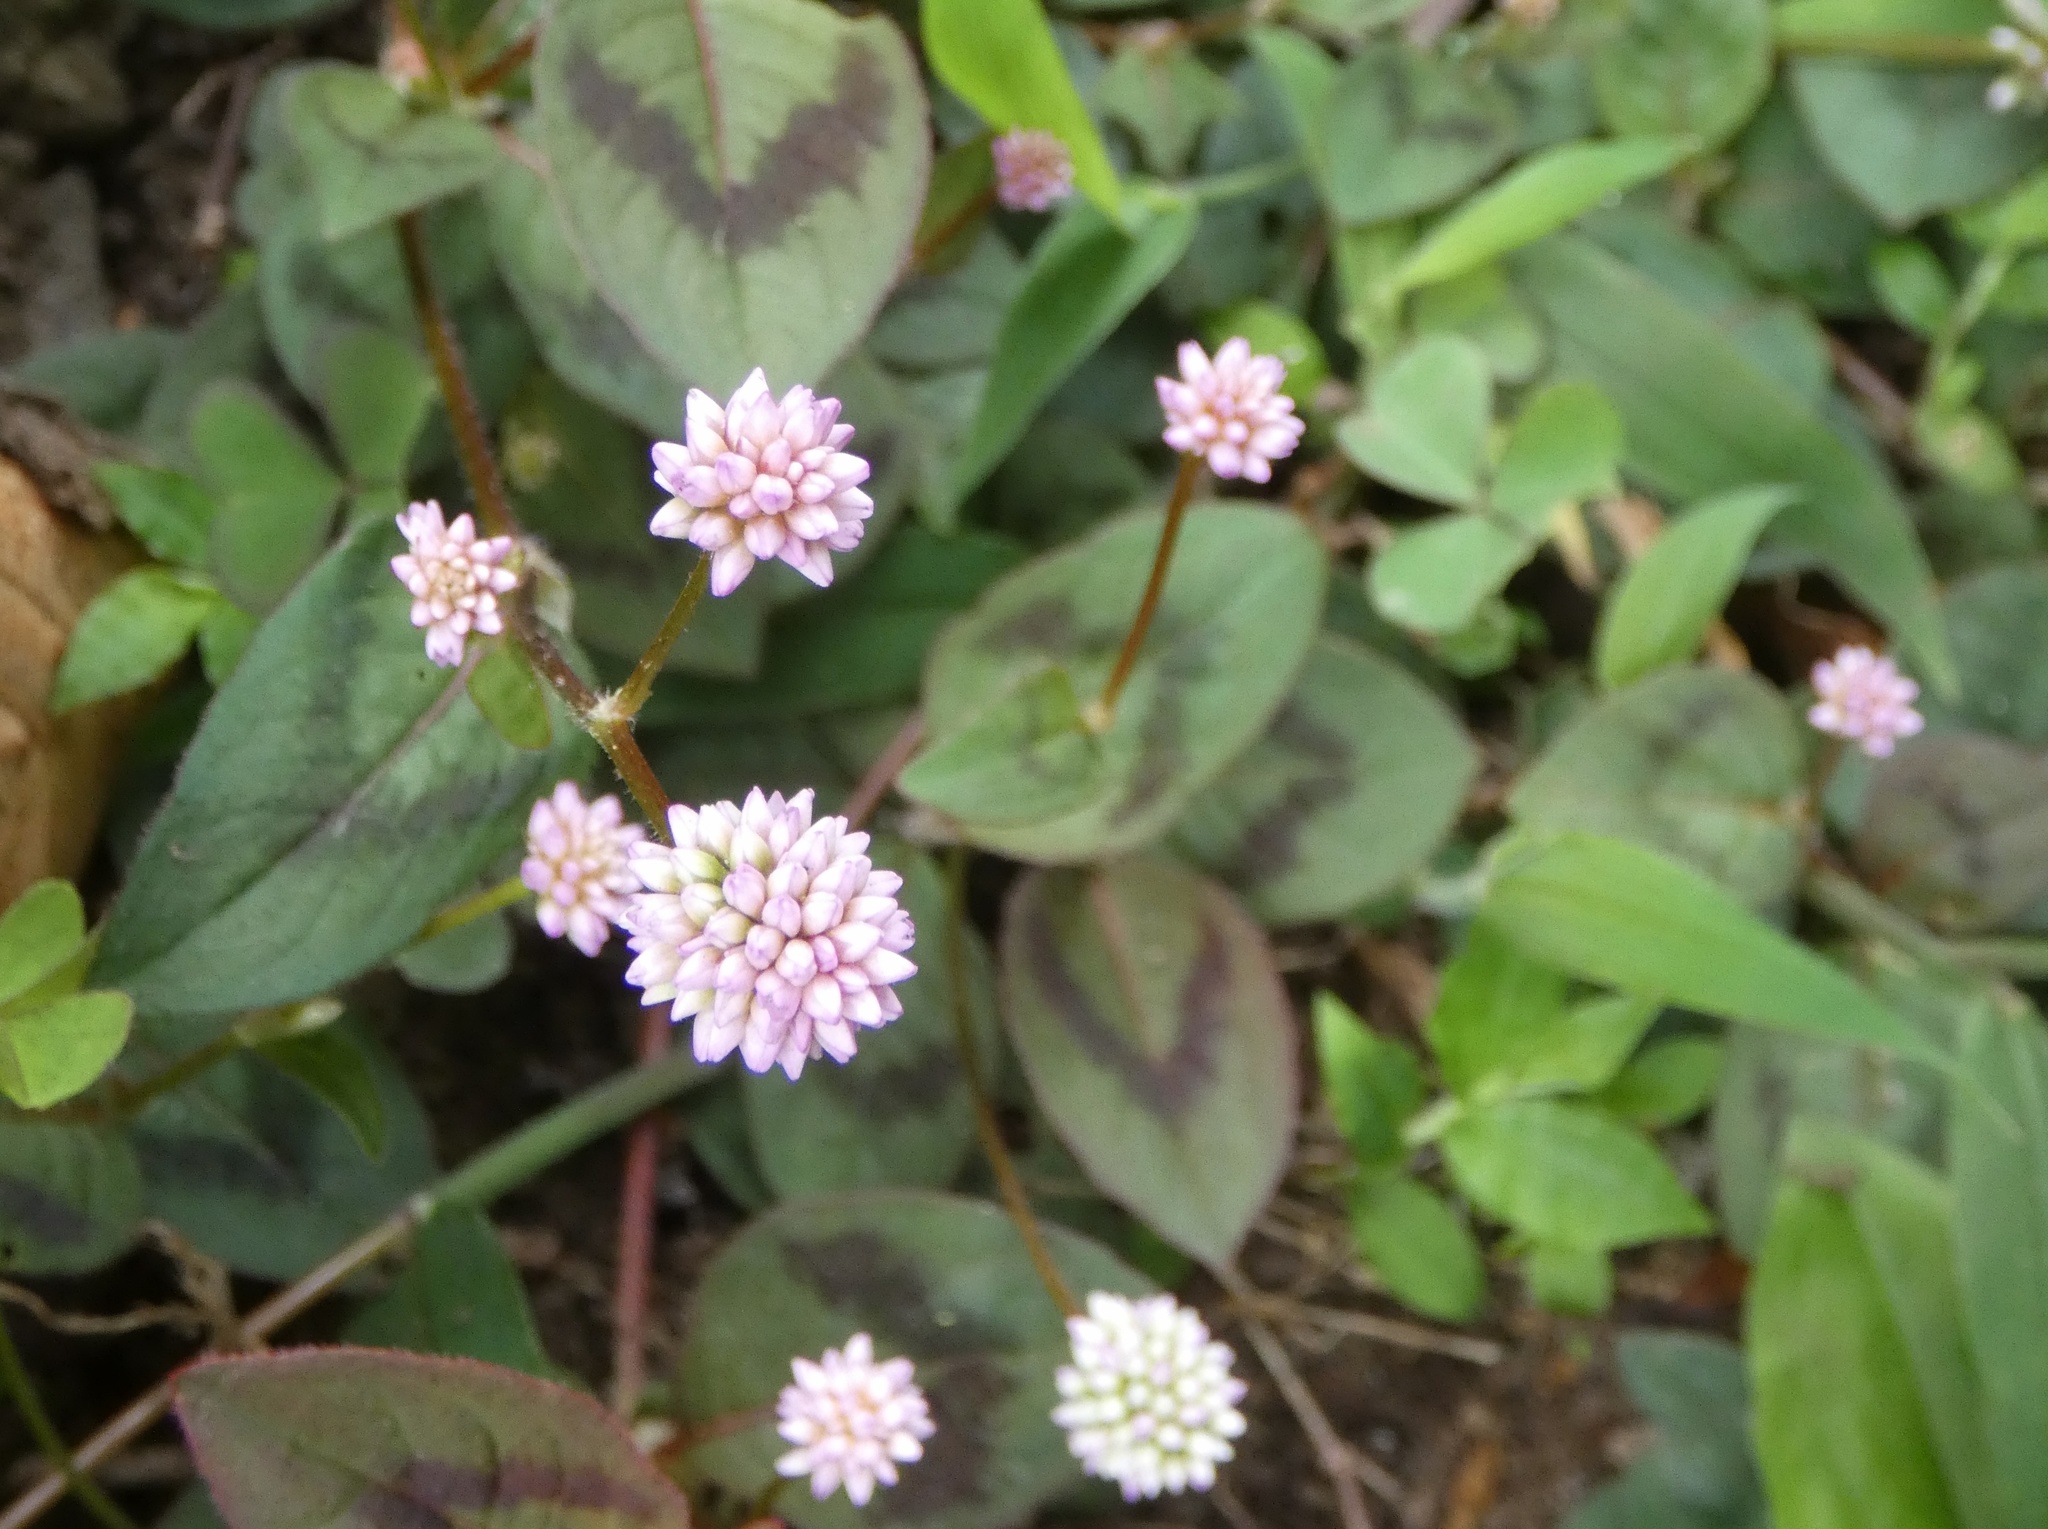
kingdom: Plantae
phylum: Tracheophyta
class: Magnoliopsida
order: Caryophyllales
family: Polygonaceae
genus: Persicaria
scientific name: Persicaria capitata
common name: Pinkhead smartweed
